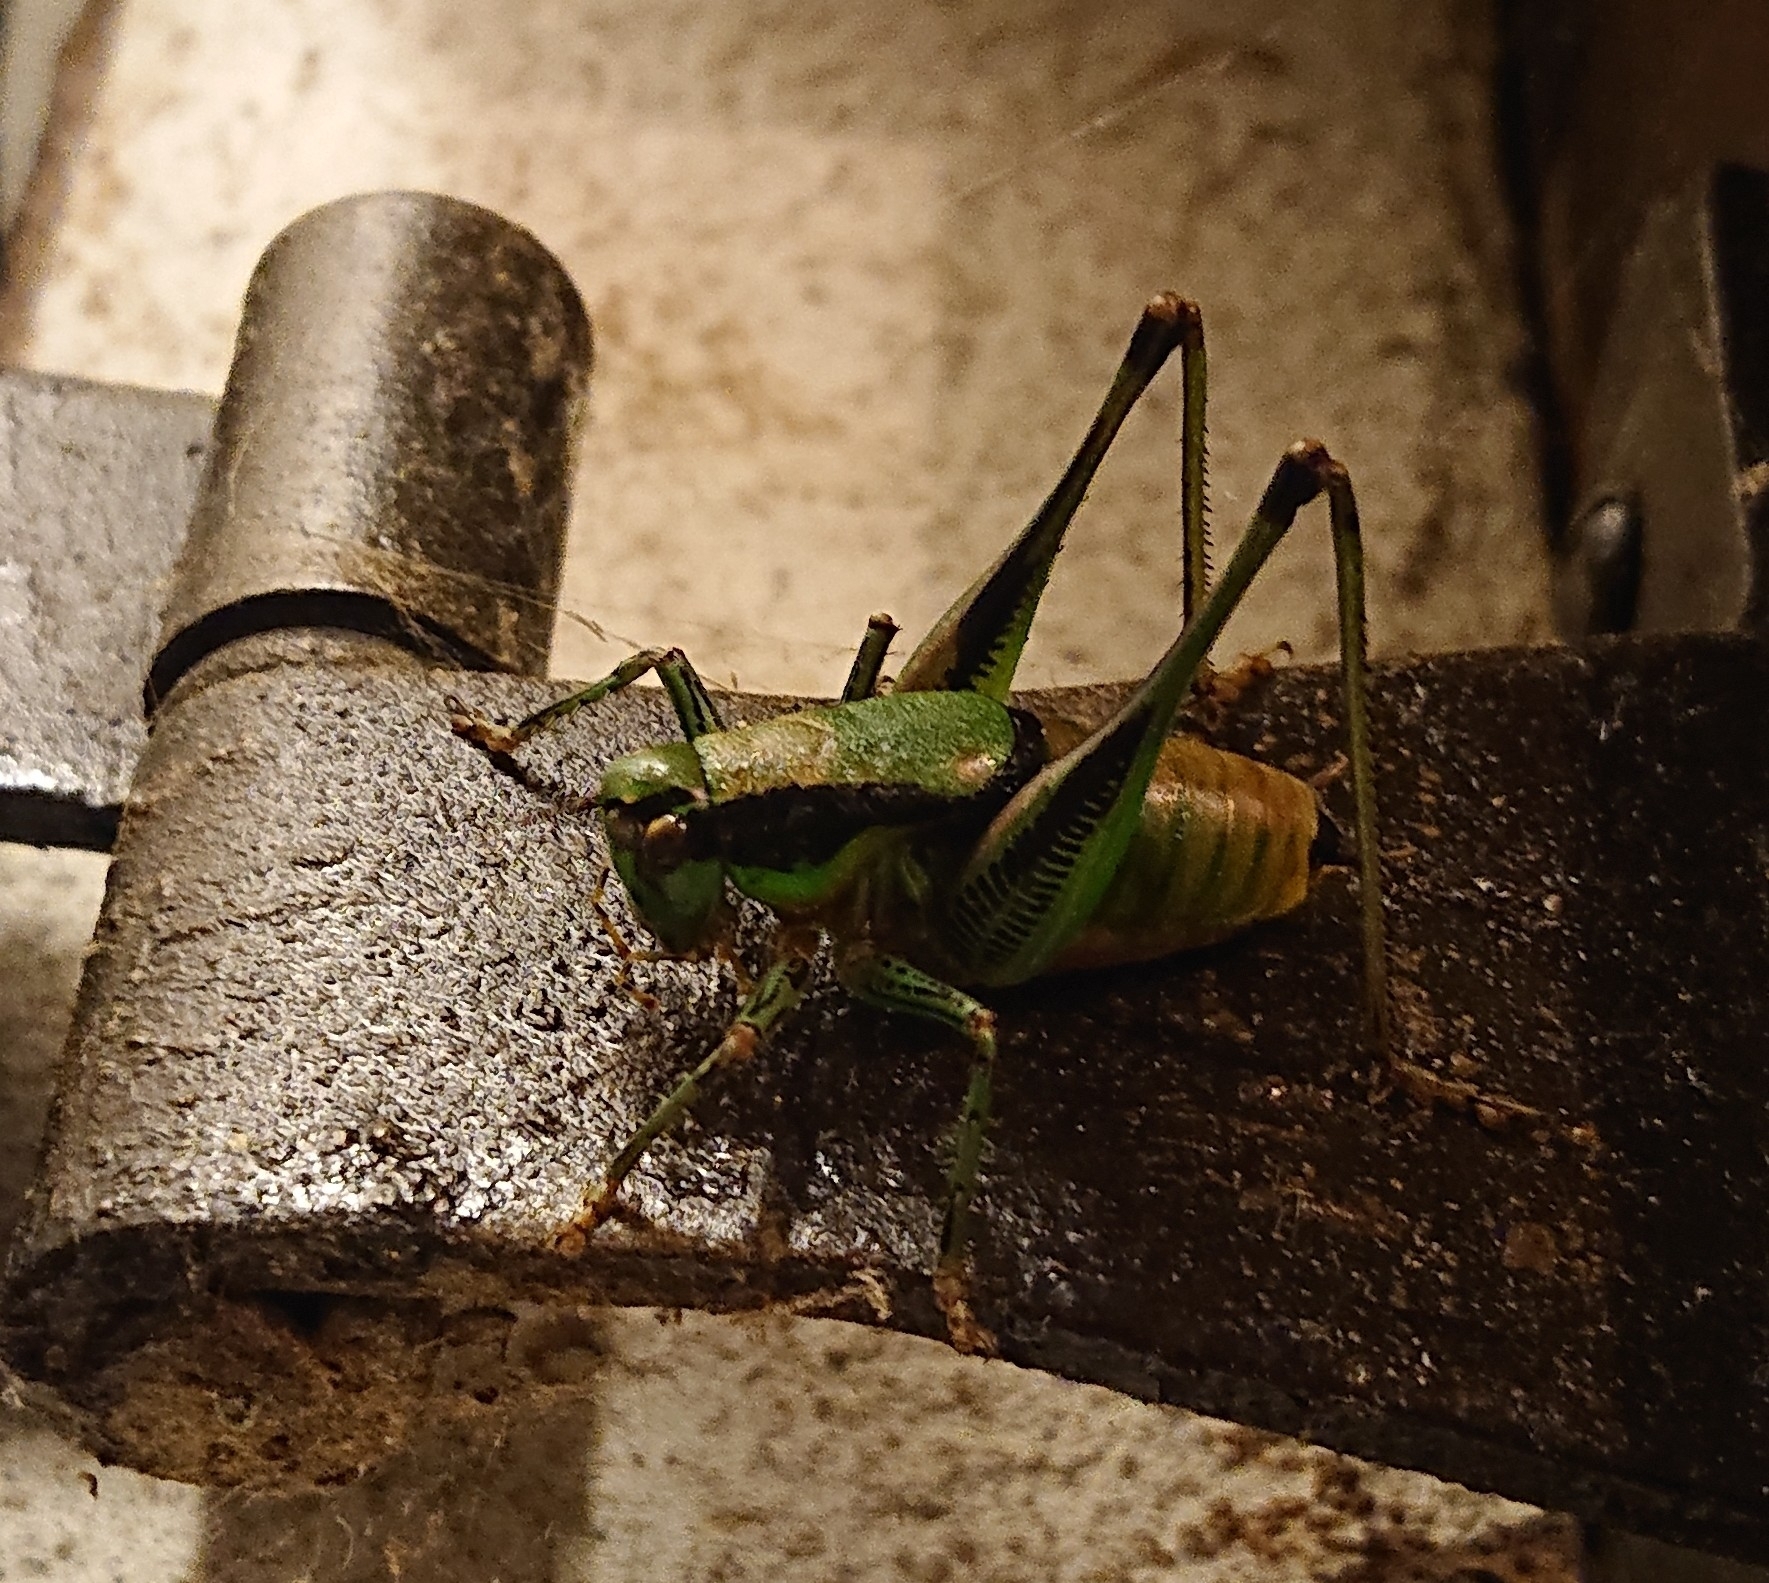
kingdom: Animalia
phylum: Arthropoda
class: Insecta
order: Orthoptera
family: Tettigoniidae
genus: Eupholidoptera
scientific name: Eupholidoptera schmidti
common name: Schmidt's marbled bush-cricket
